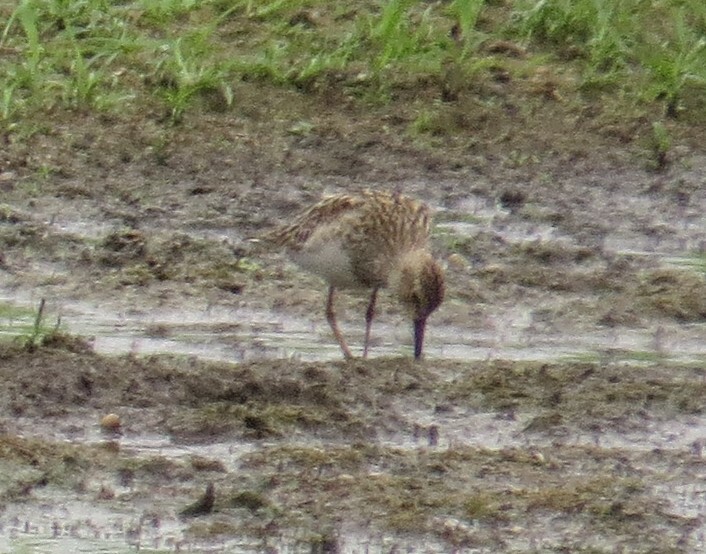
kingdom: Animalia
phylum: Chordata
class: Aves
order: Charadriiformes
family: Scolopacidae
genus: Calidris
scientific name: Calidris melanotos
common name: Pectoral sandpiper
